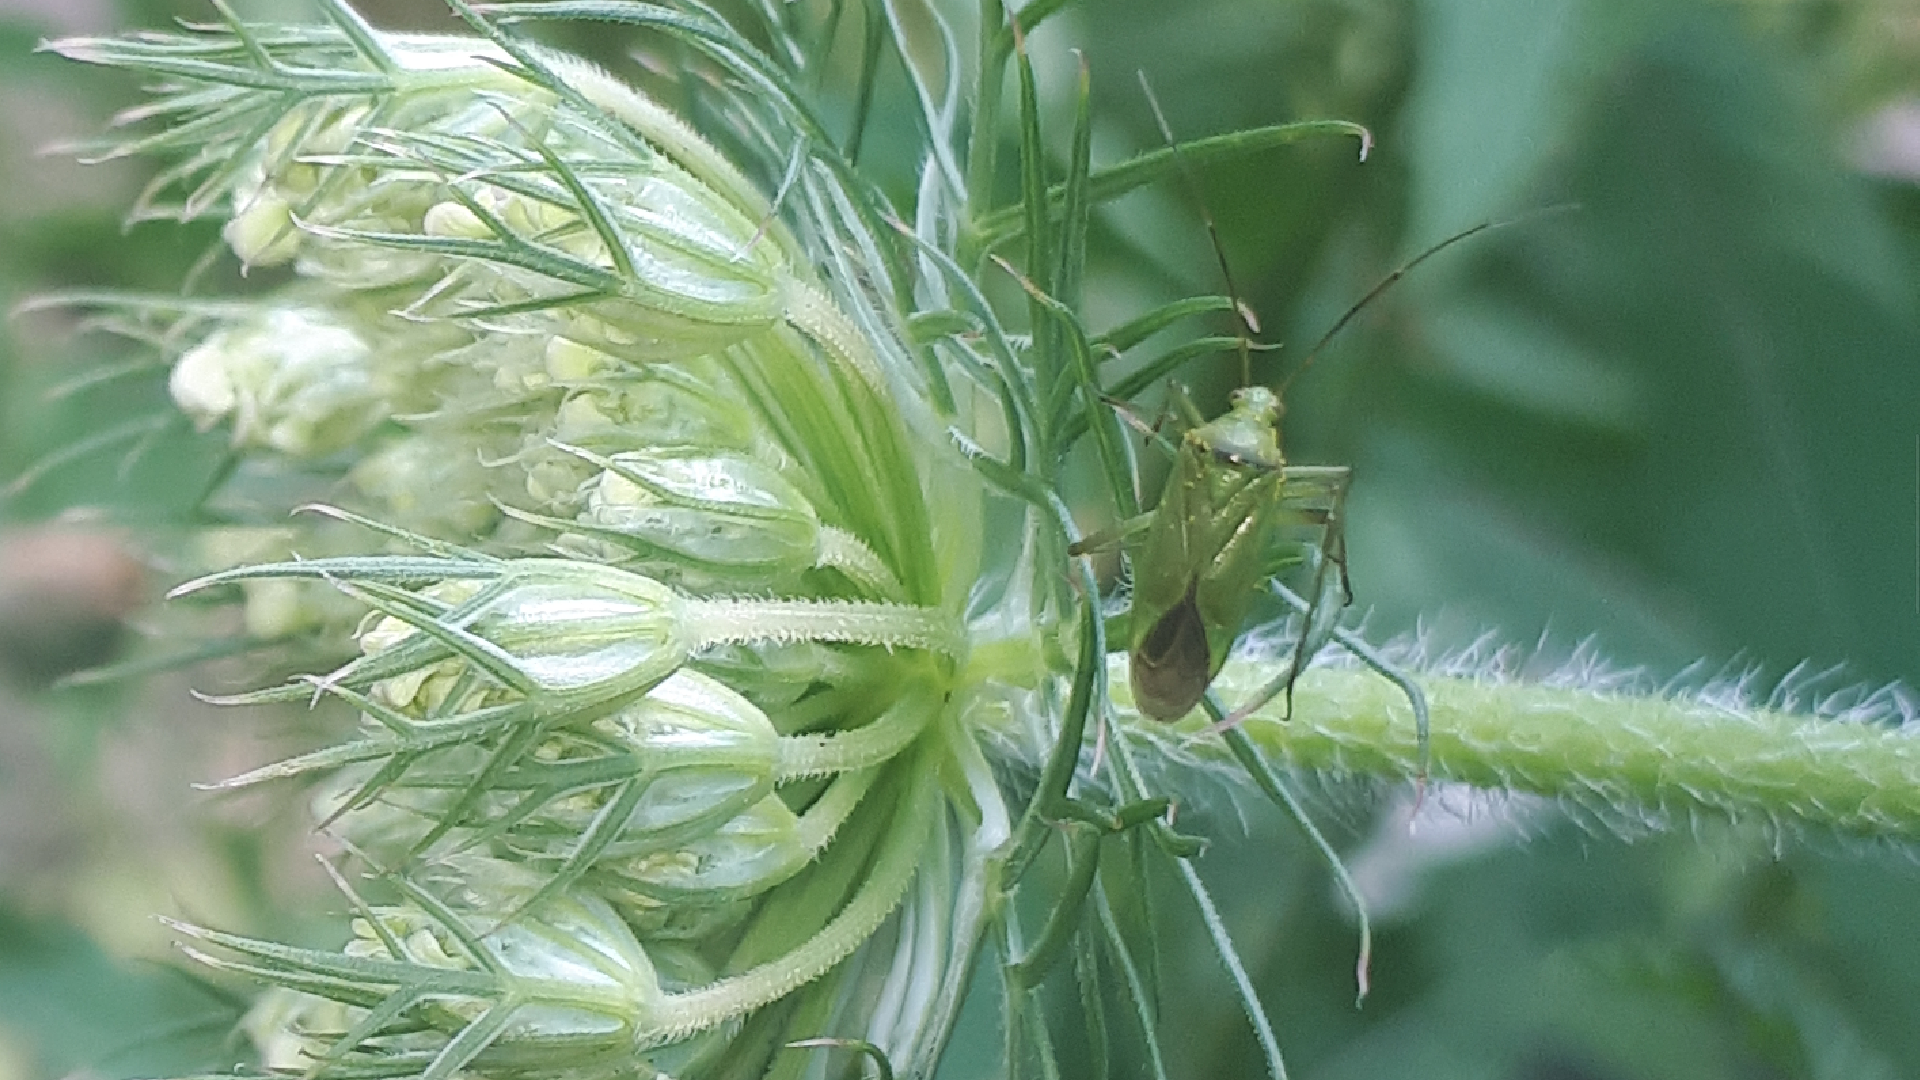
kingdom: Animalia
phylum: Arthropoda
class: Insecta
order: Hemiptera
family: Miridae
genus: Calocoris
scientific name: Calocoris affinis
